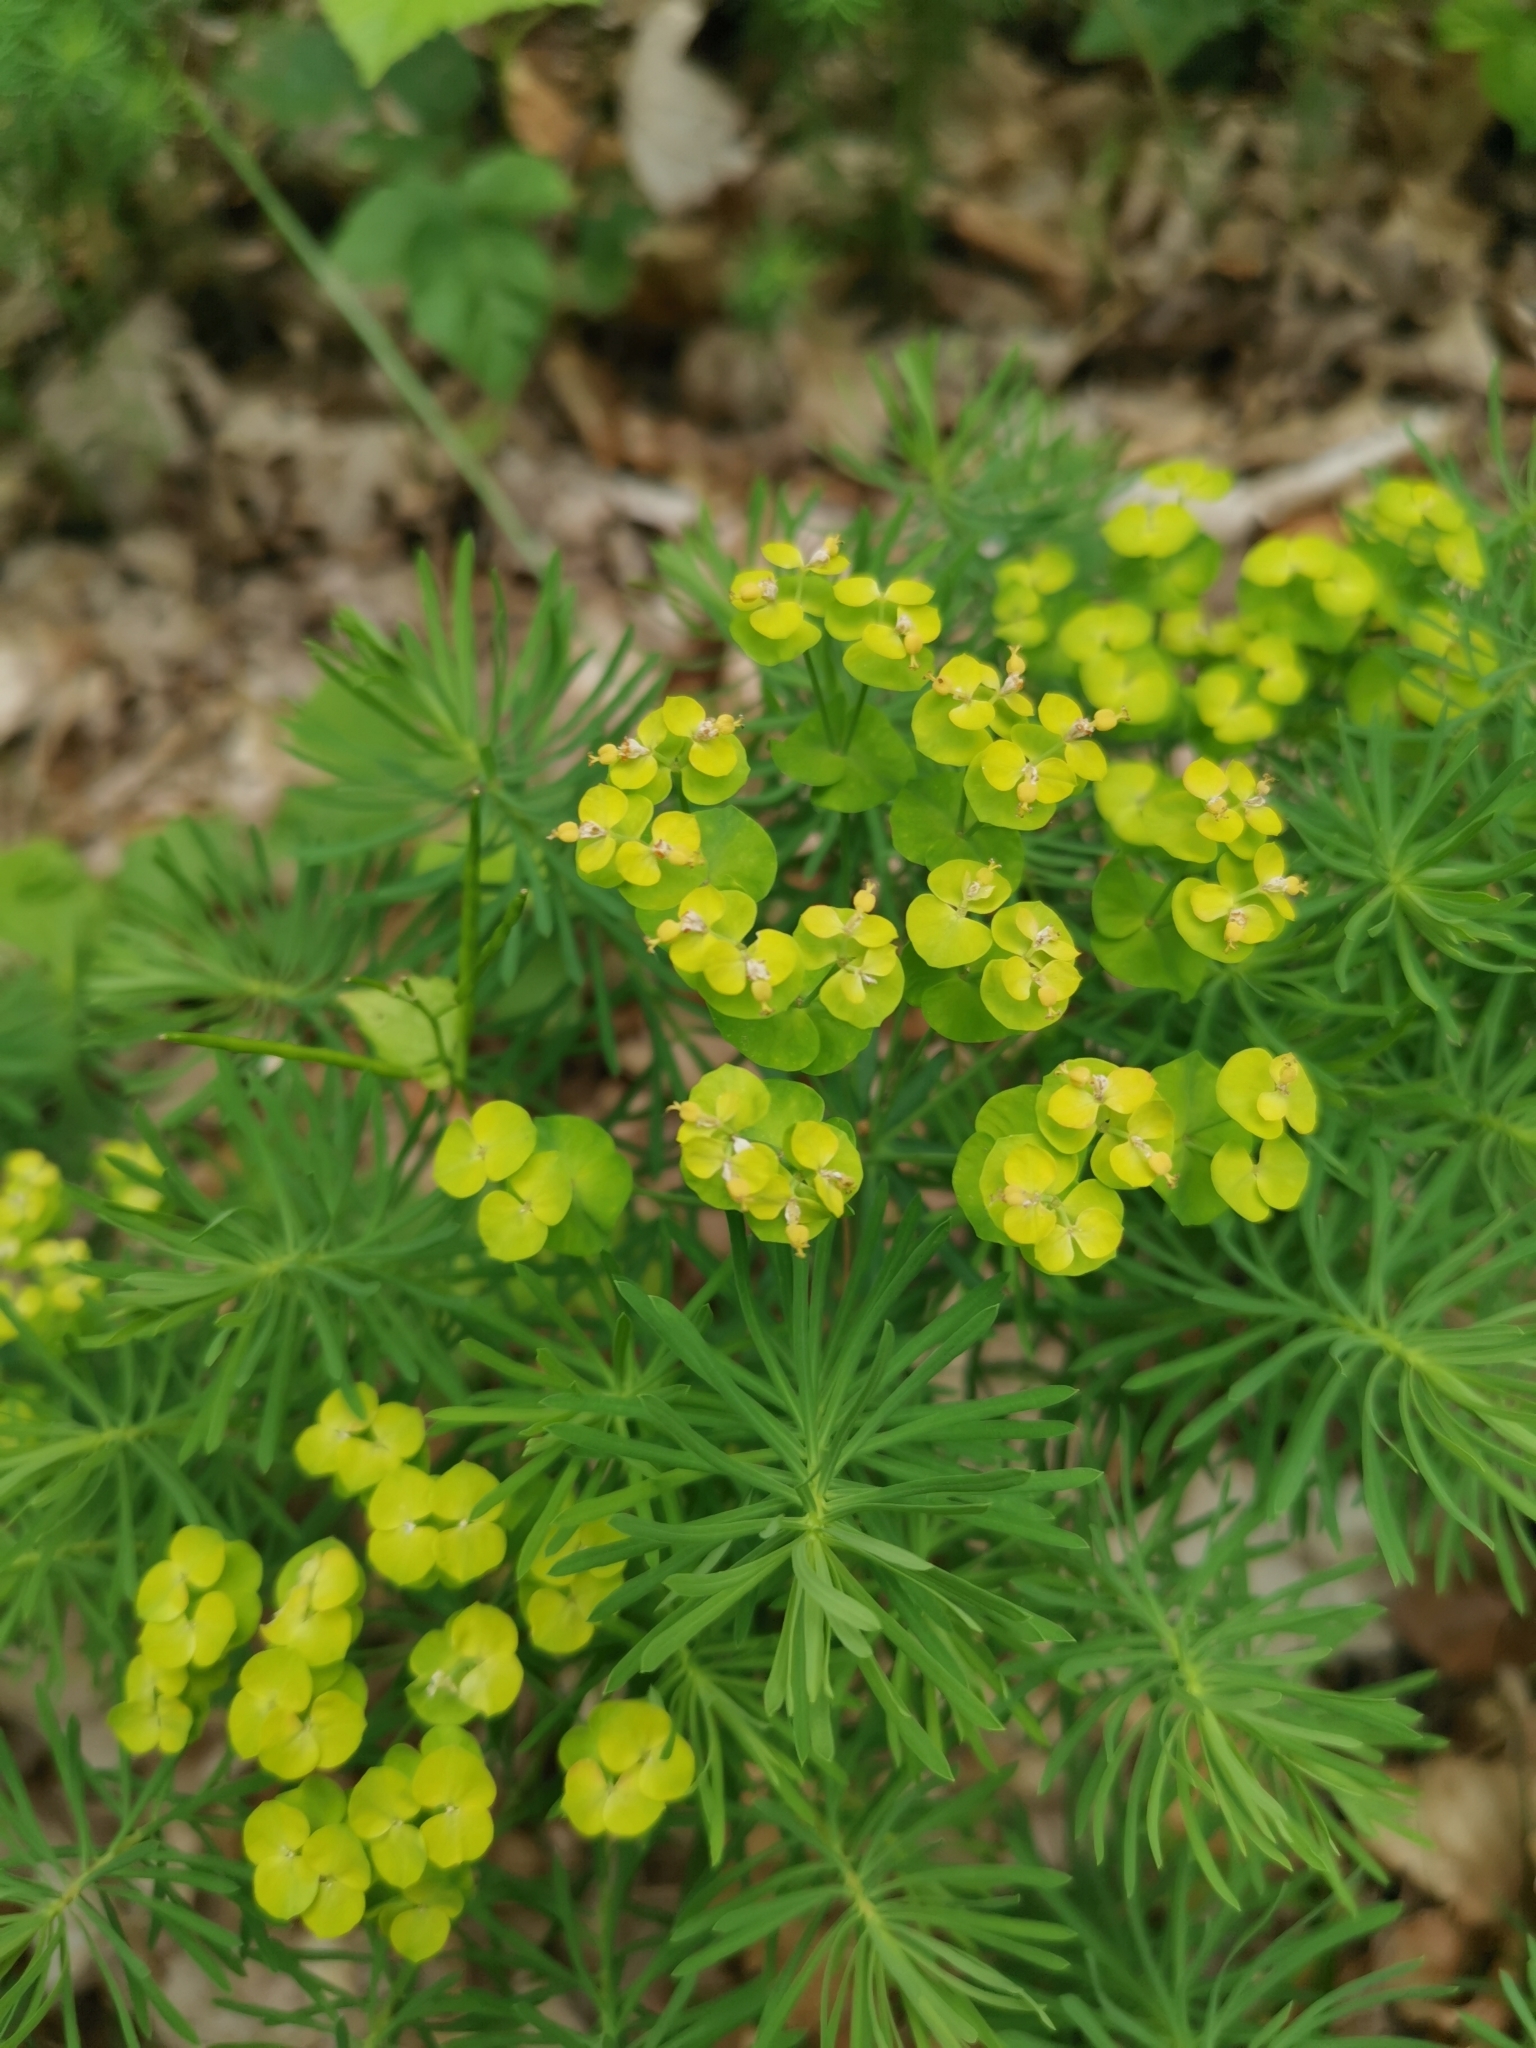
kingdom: Plantae
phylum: Tracheophyta
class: Magnoliopsida
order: Malpighiales
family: Euphorbiaceae
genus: Euphorbia
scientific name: Euphorbia cyparissias
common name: Cypress spurge
